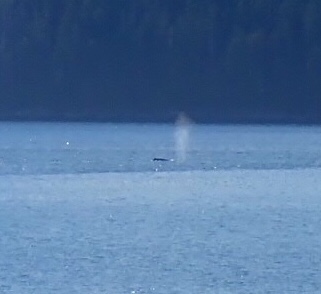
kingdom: Animalia
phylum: Chordata
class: Mammalia
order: Cetacea
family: Balaenopteridae
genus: Megaptera
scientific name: Megaptera novaeangliae
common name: Humpback whale
